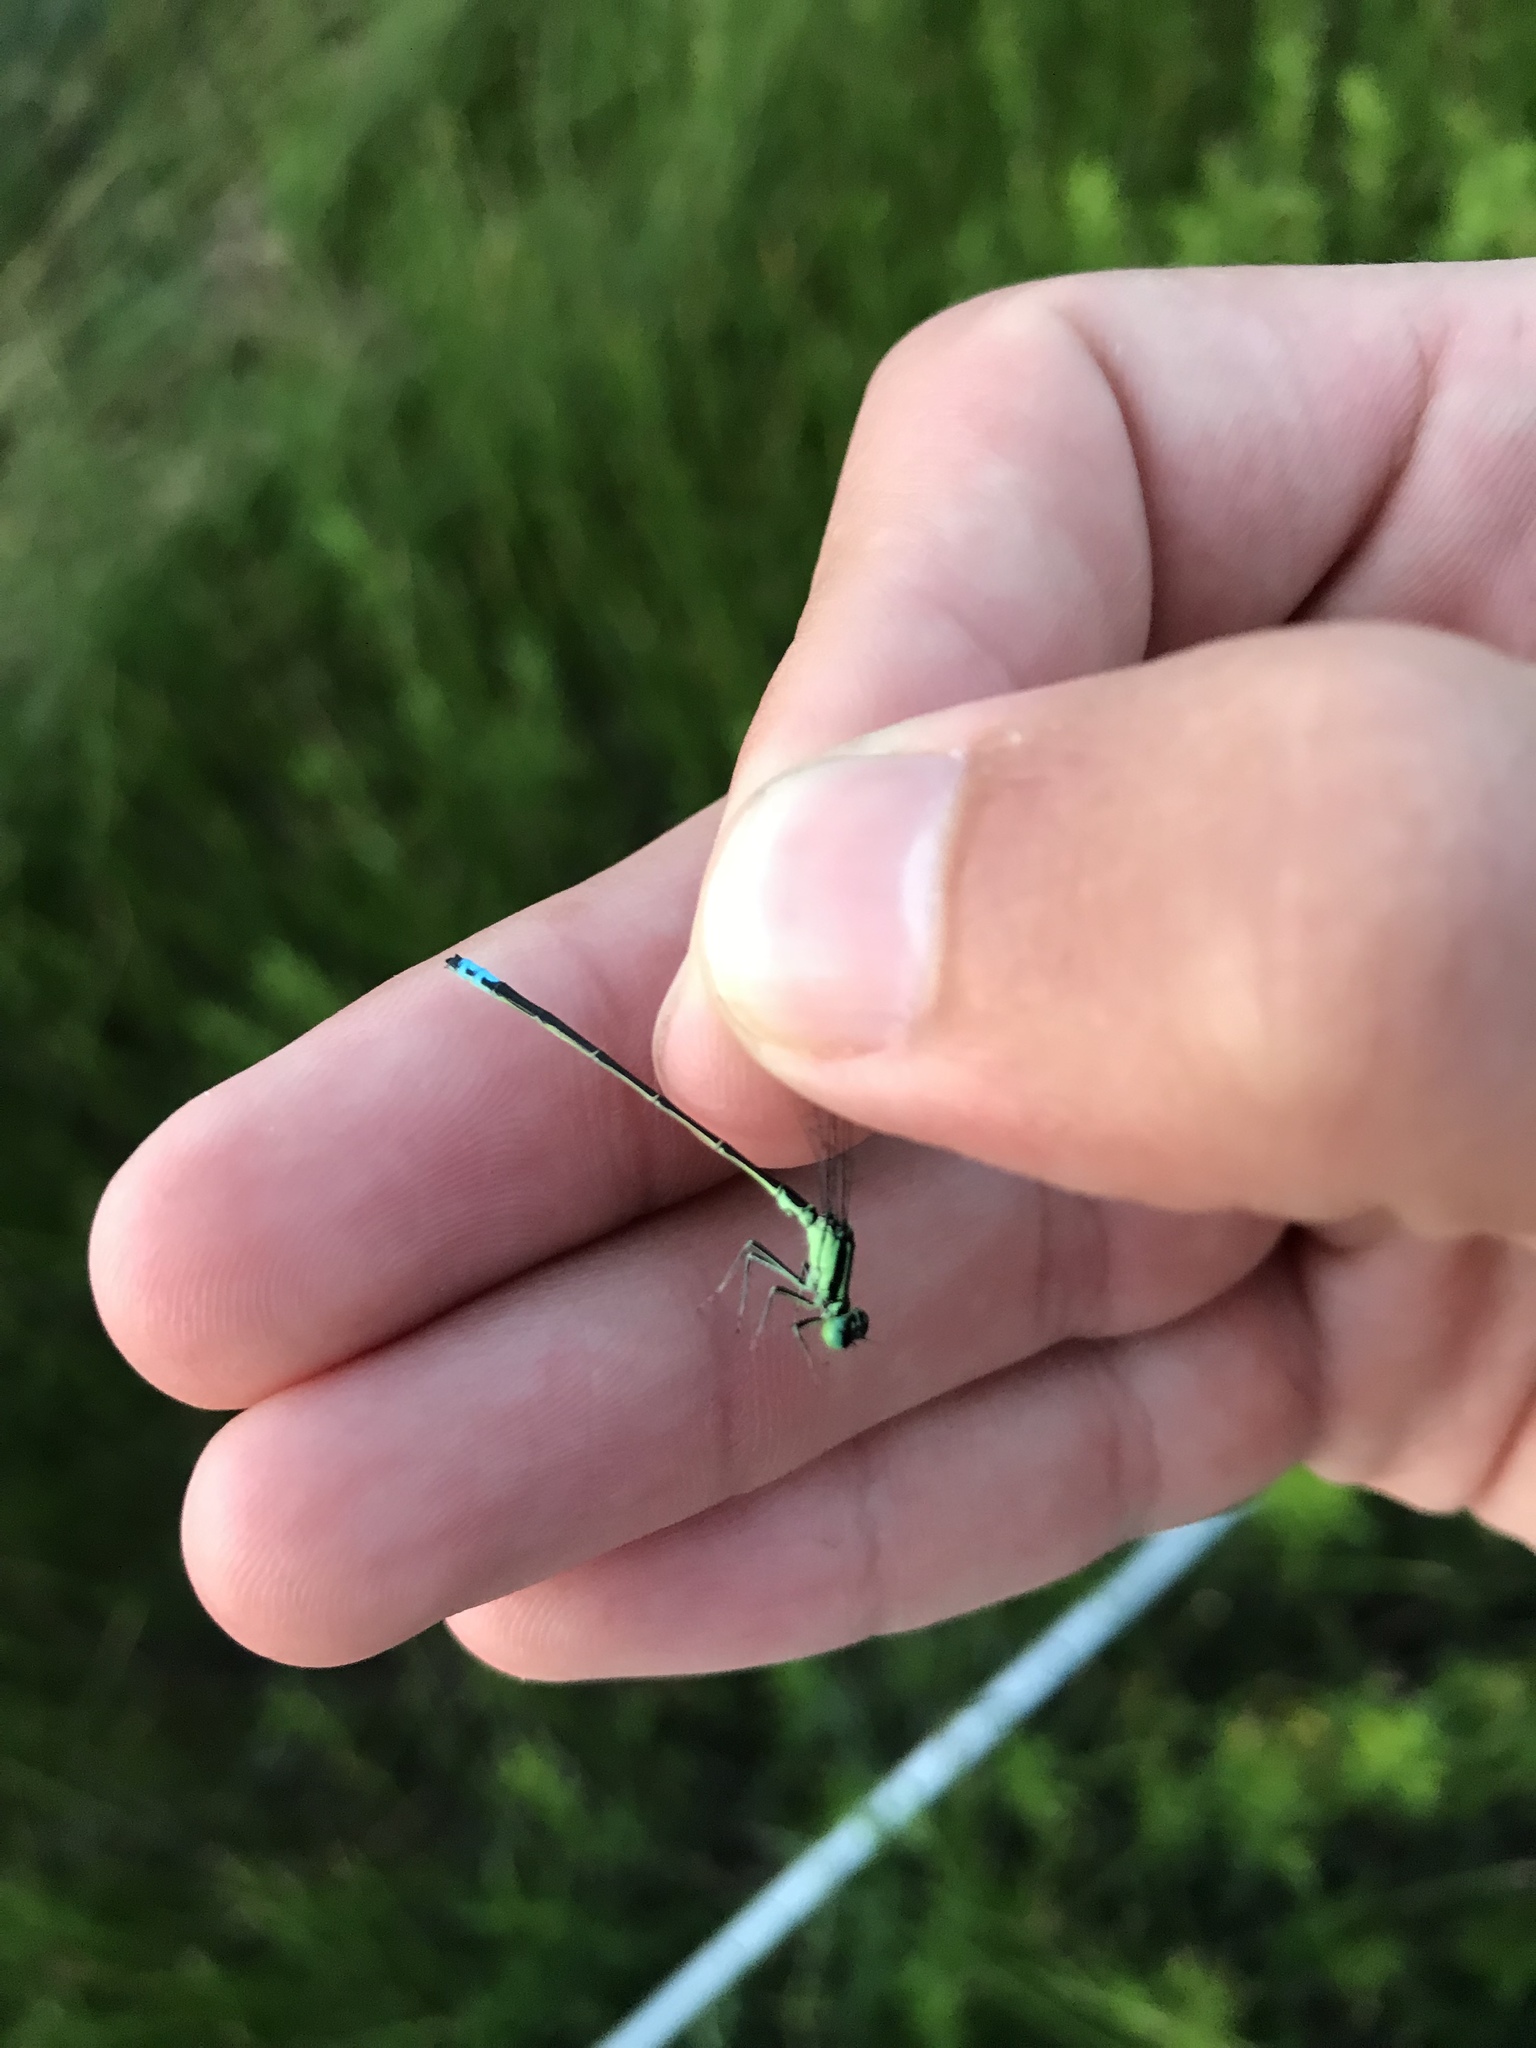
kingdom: Animalia
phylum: Arthropoda
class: Insecta
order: Odonata
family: Coenagrionidae
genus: Ischnura
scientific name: Ischnura verticalis
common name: Eastern forktail
